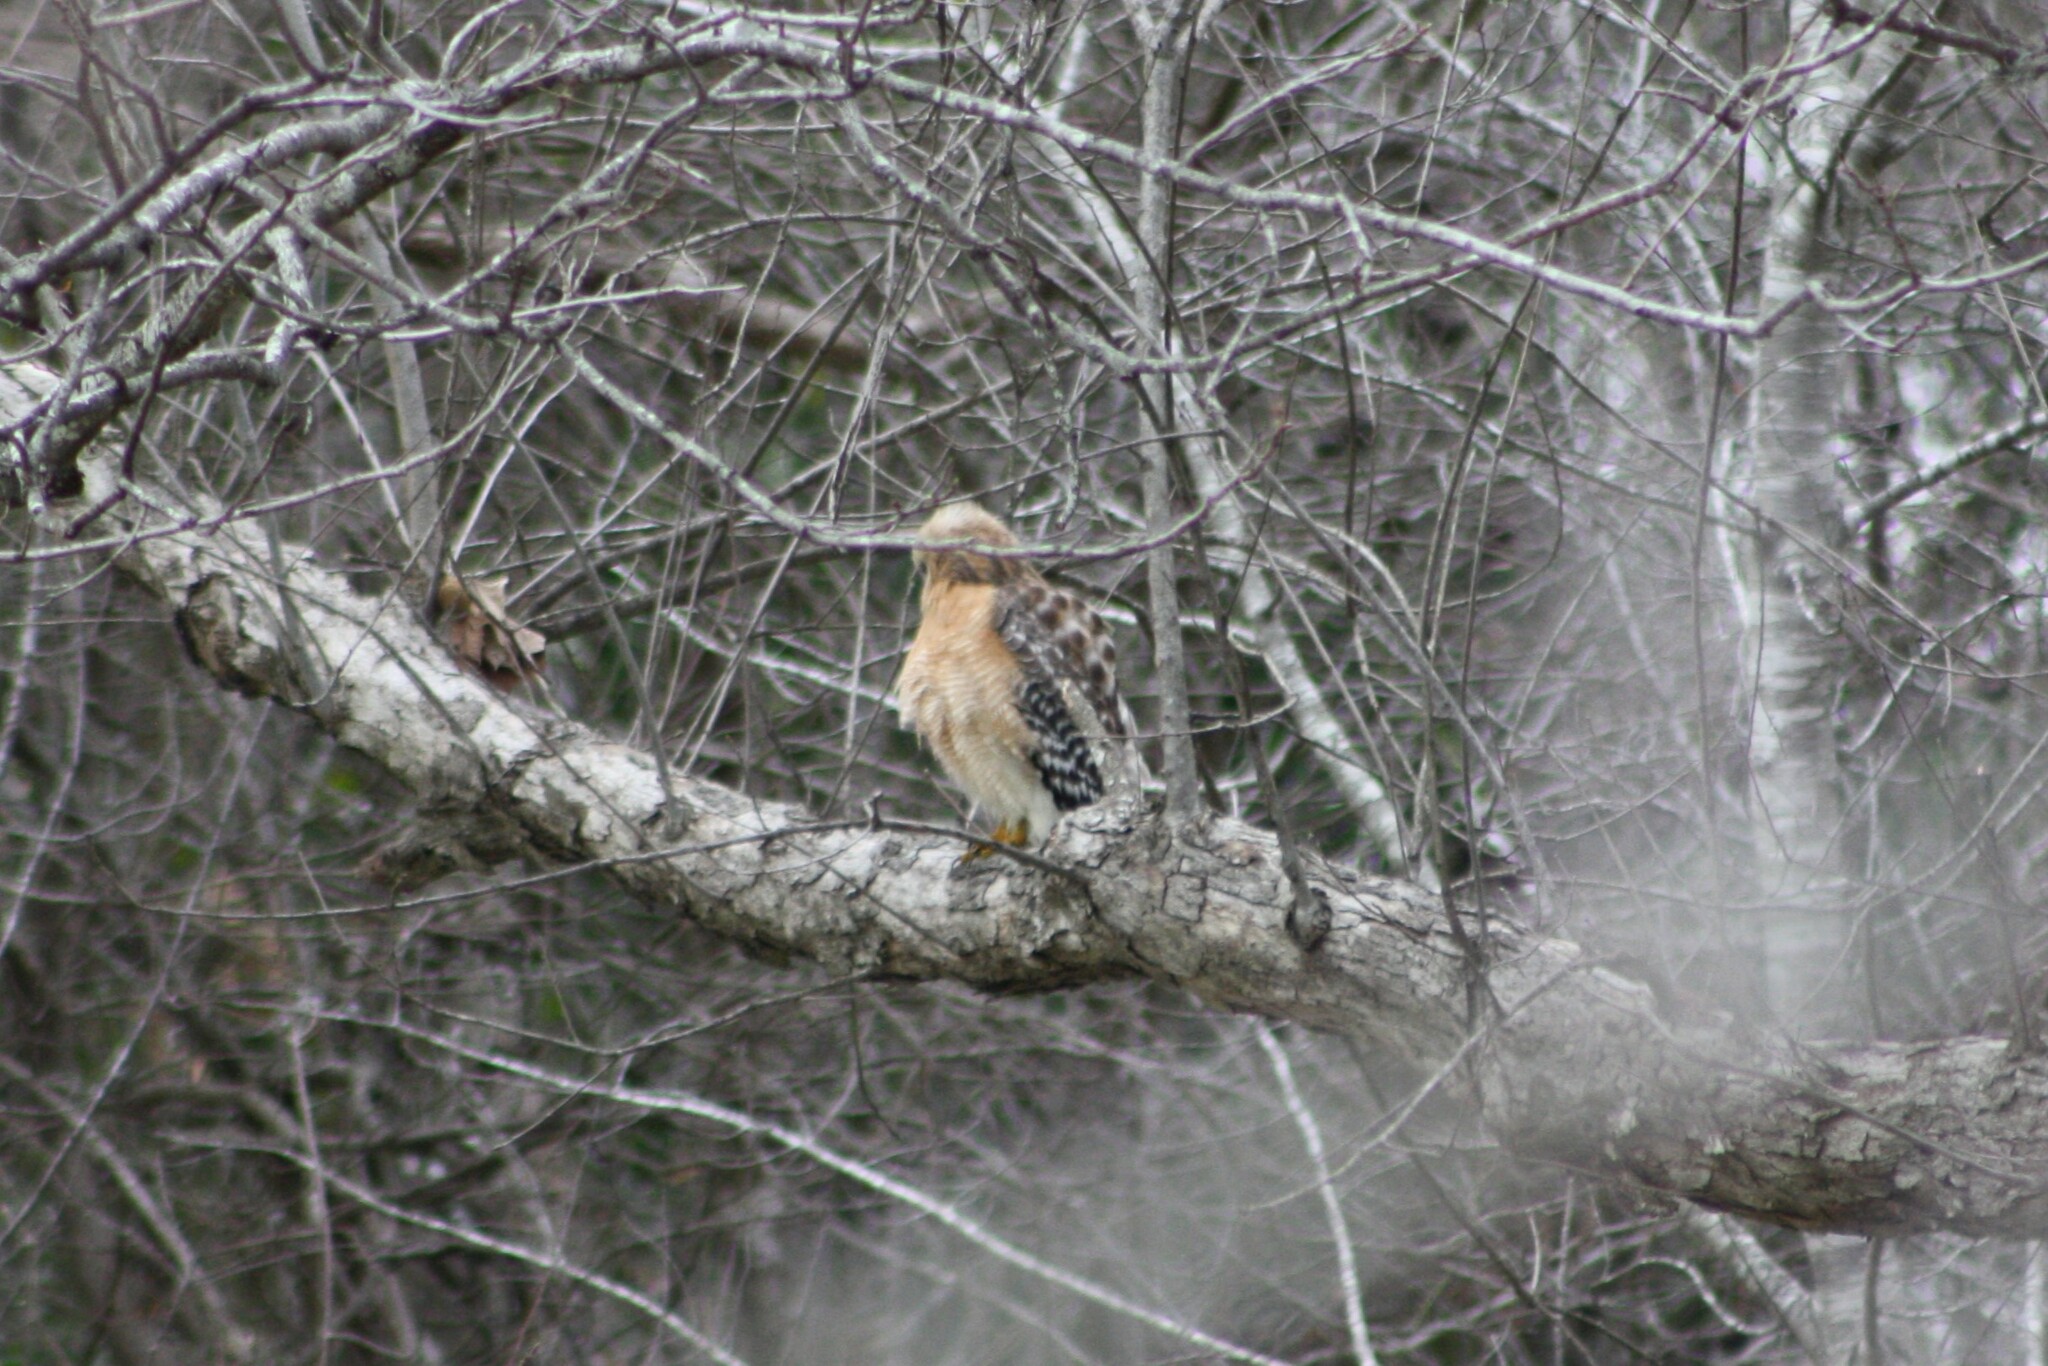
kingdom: Animalia
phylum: Chordata
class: Aves
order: Accipitriformes
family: Accipitridae
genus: Buteo
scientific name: Buteo lineatus
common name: Red-shouldered hawk
